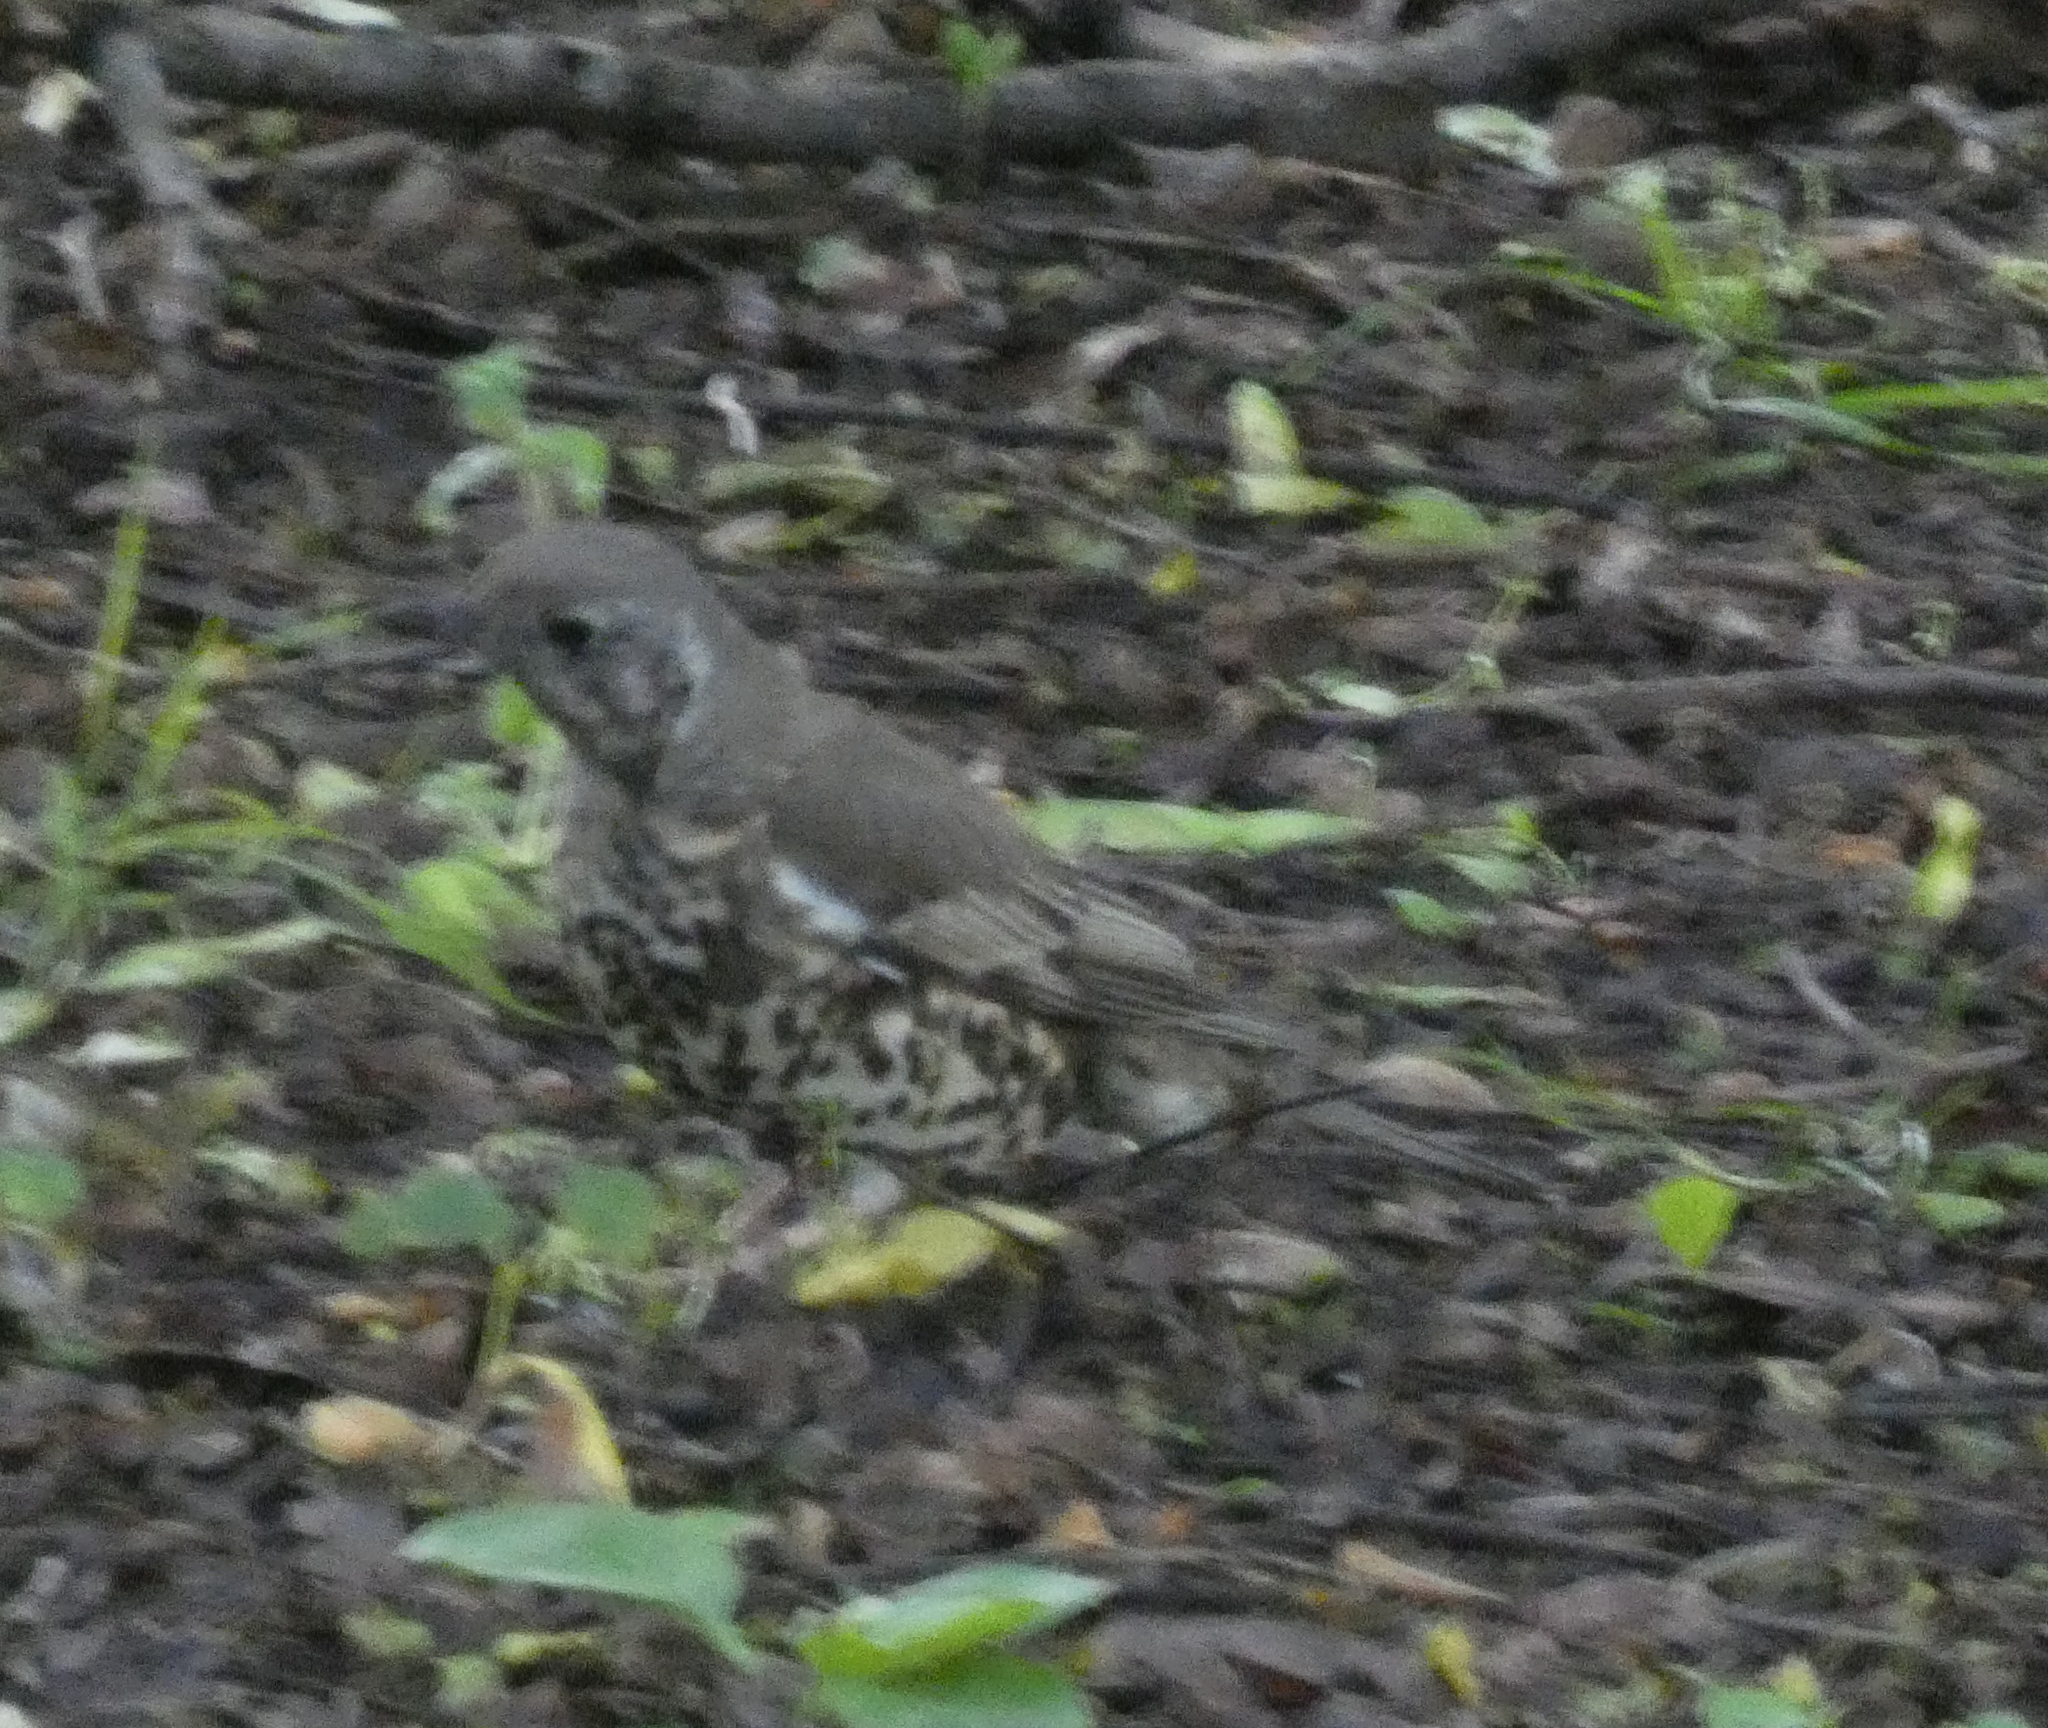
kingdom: Animalia
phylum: Chordata
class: Aves
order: Passeriformes
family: Turdidae
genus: Turdus
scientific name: Turdus viscivorus
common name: Mistle thrush
